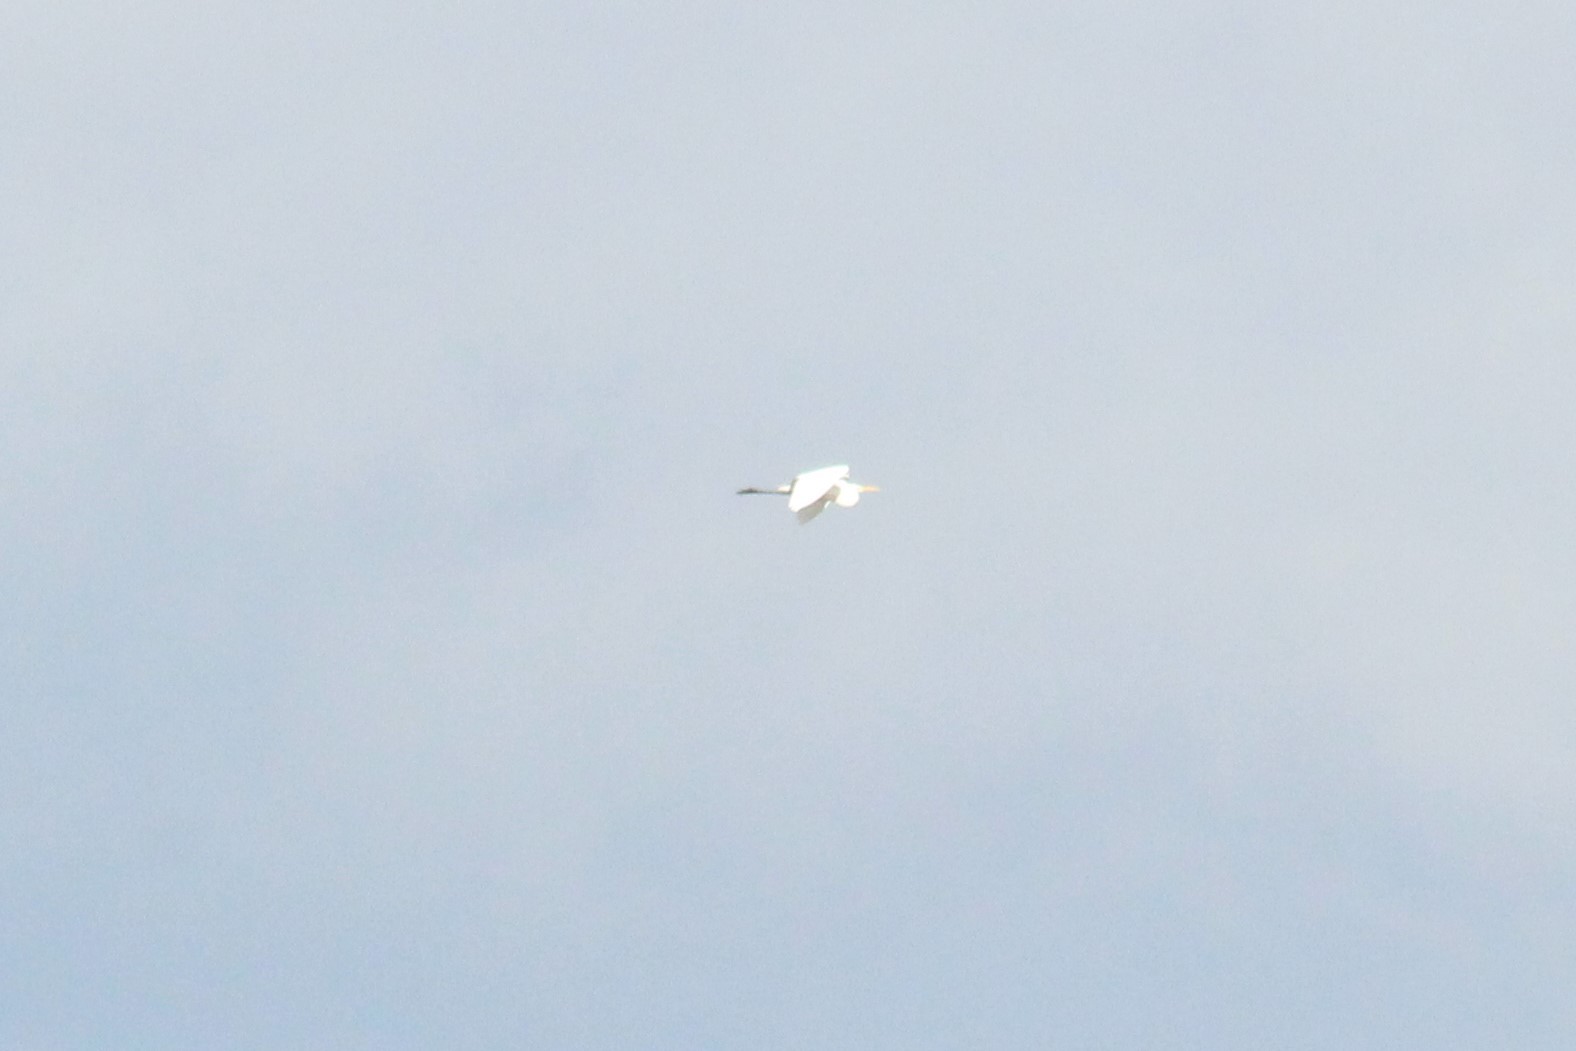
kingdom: Animalia
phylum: Chordata
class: Aves
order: Pelecaniformes
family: Ardeidae
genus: Ardea
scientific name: Ardea alba
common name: Great egret
